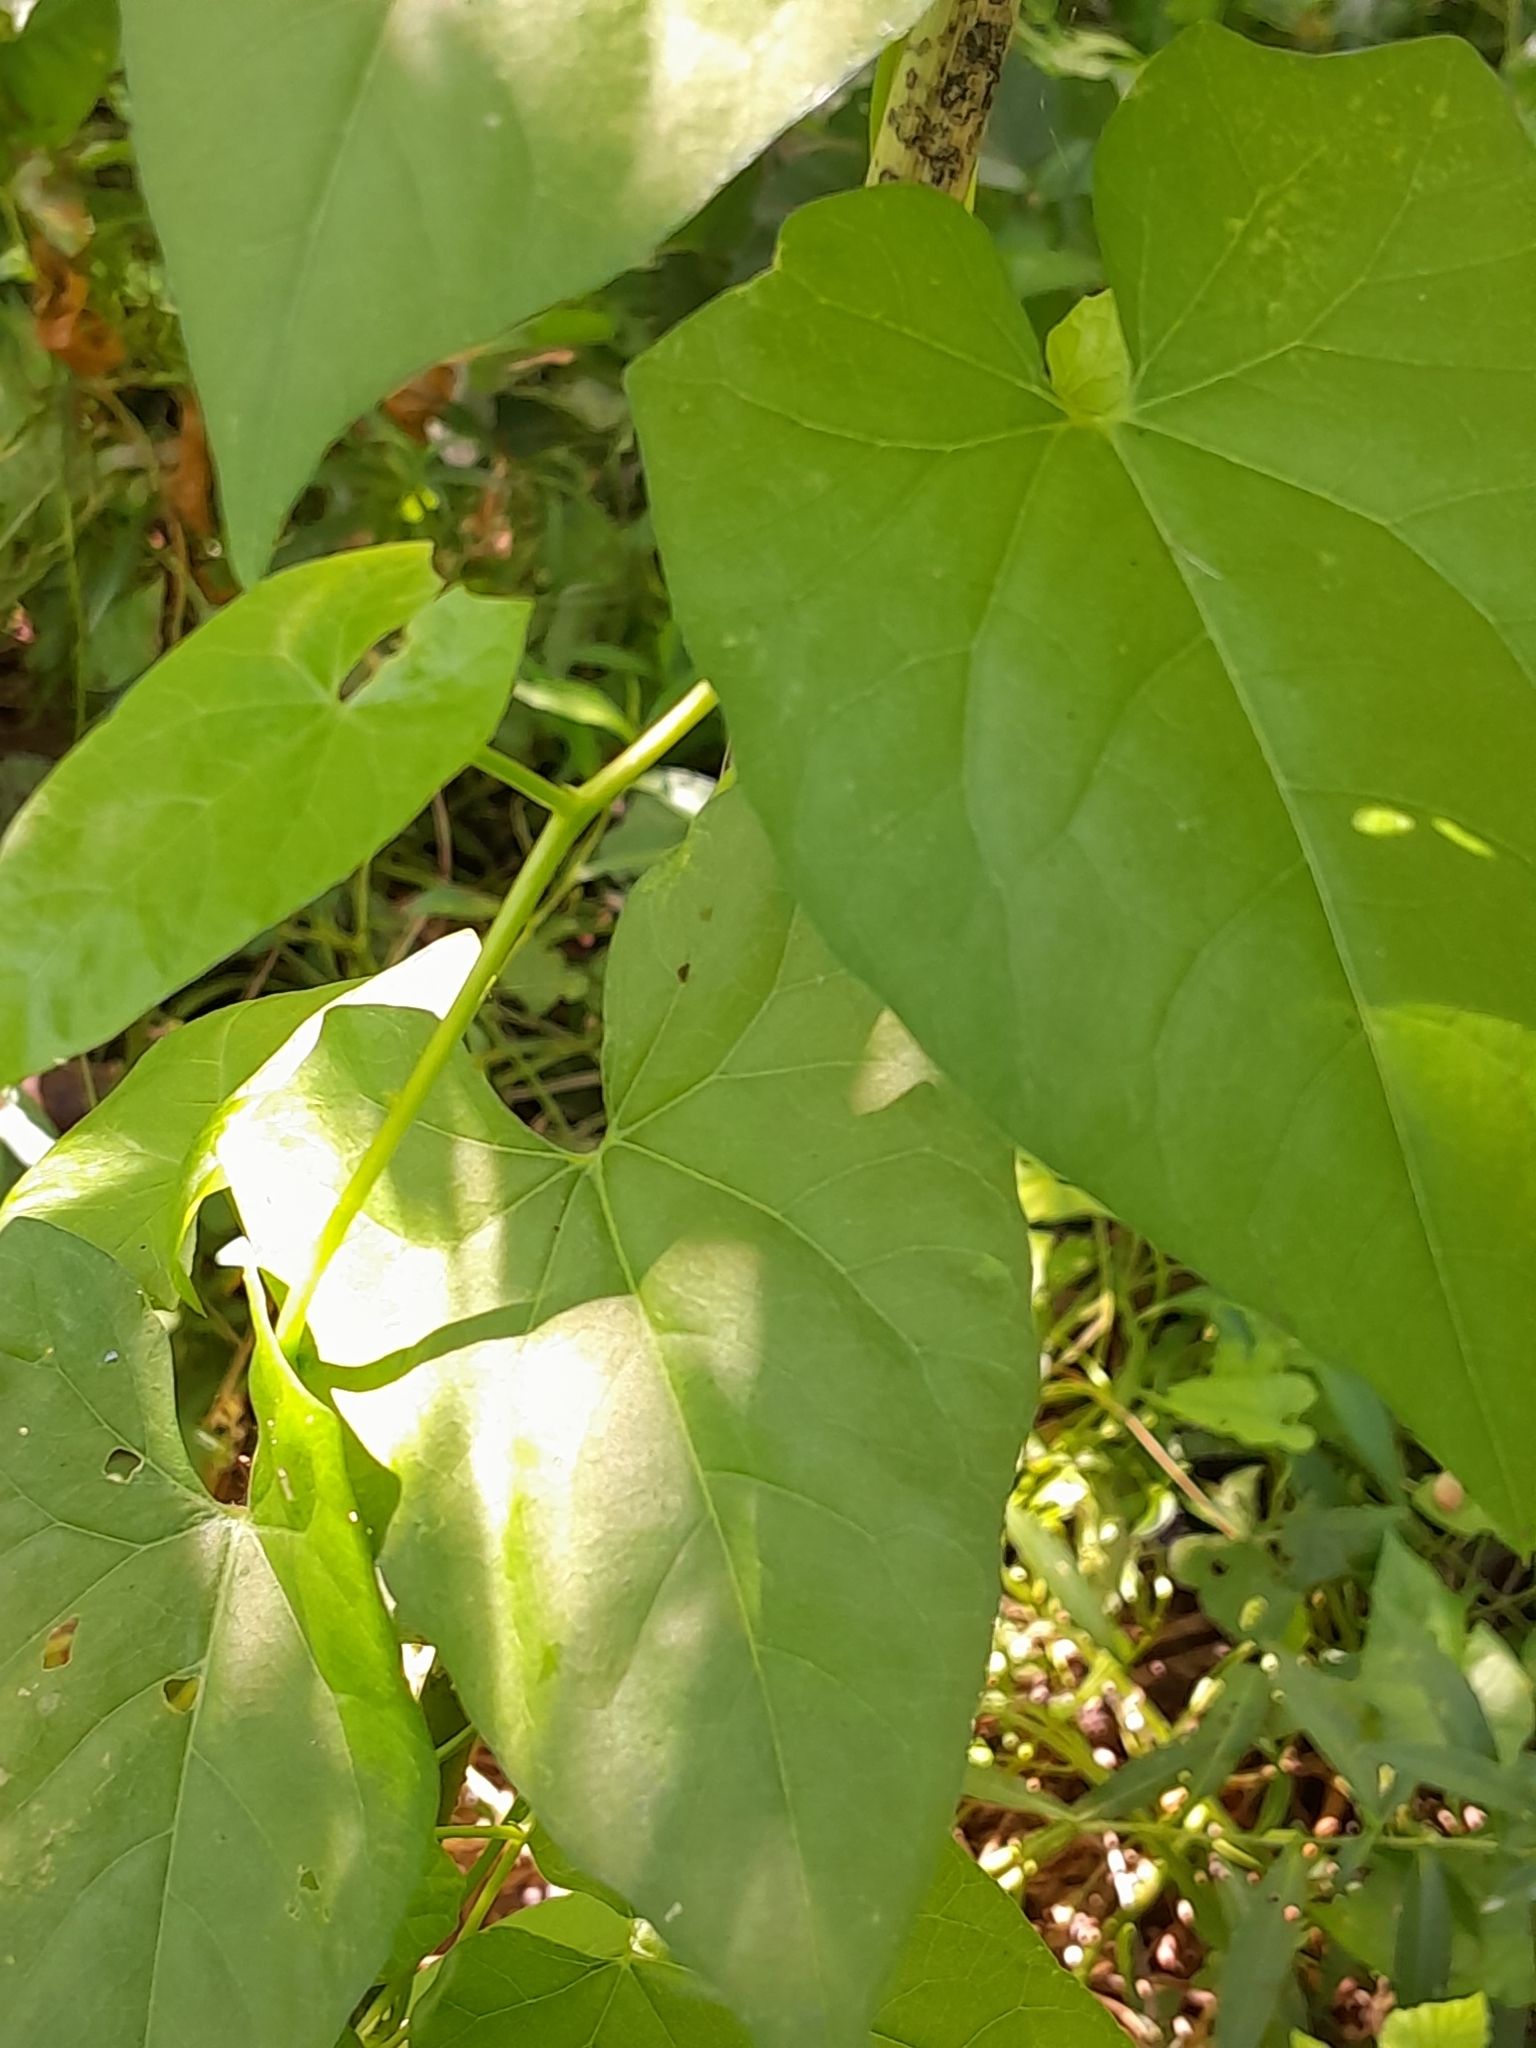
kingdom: Plantae
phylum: Tracheophyta
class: Magnoliopsida
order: Solanales
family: Convolvulaceae
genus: Calystegia
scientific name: Calystegia sepium
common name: Hedge bindweed
